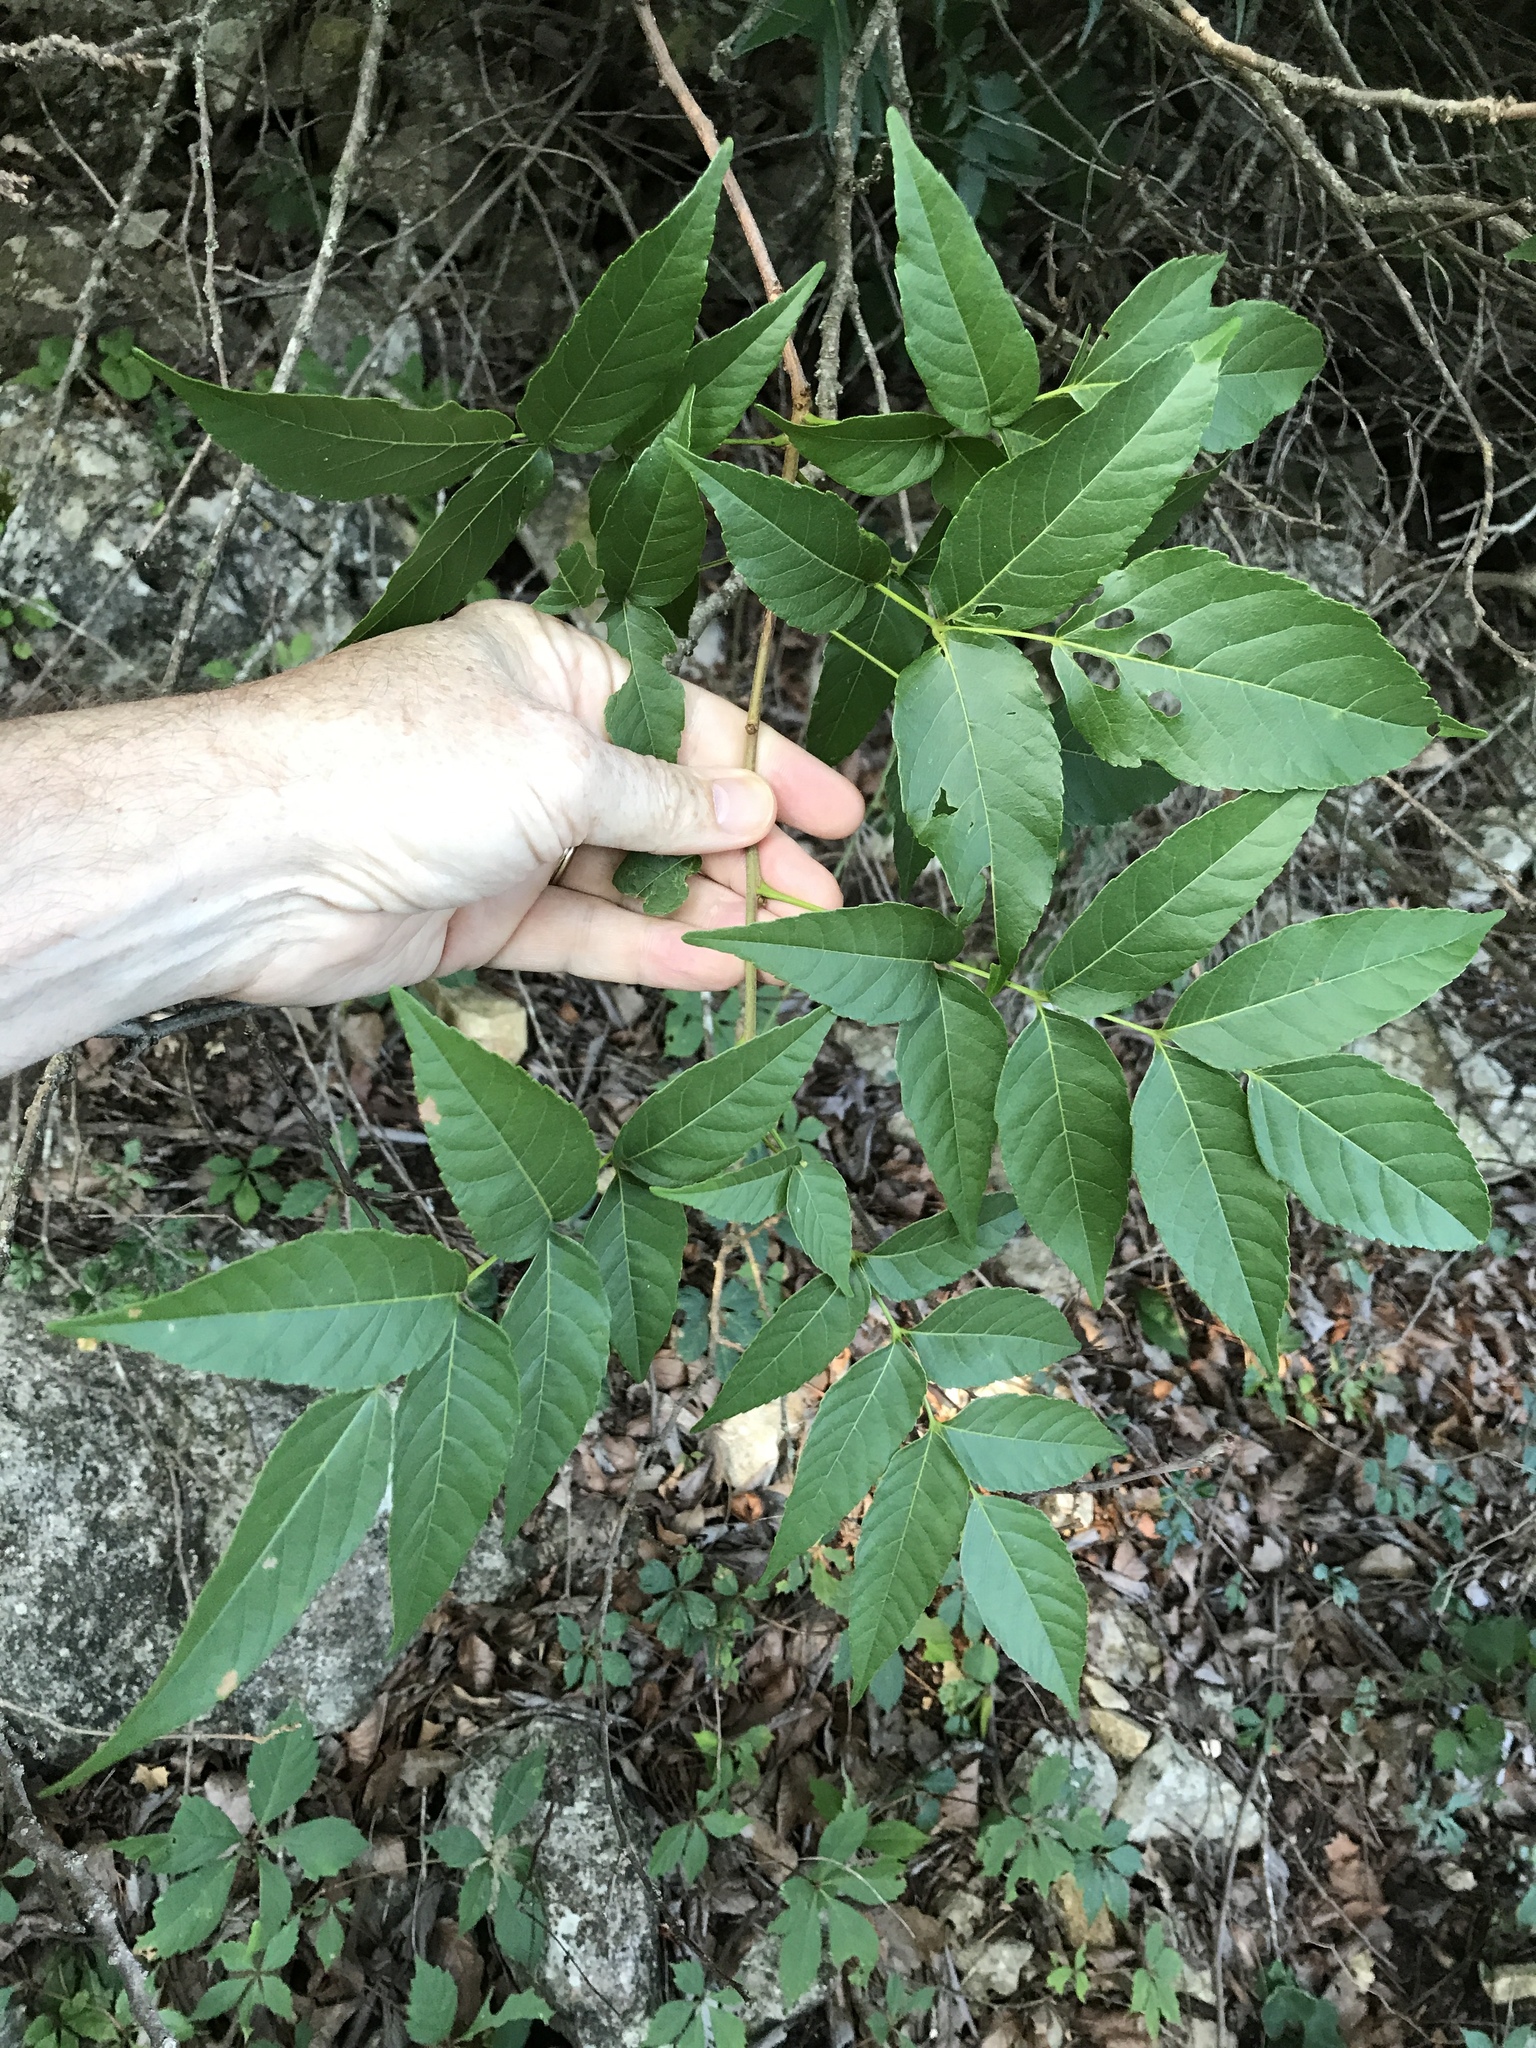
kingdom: Plantae
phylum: Tracheophyta
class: Magnoliopsida
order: Sapindales
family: Sapindaceae
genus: Ungnadia
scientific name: Ungnadia speciosa
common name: Texas-buckeye
